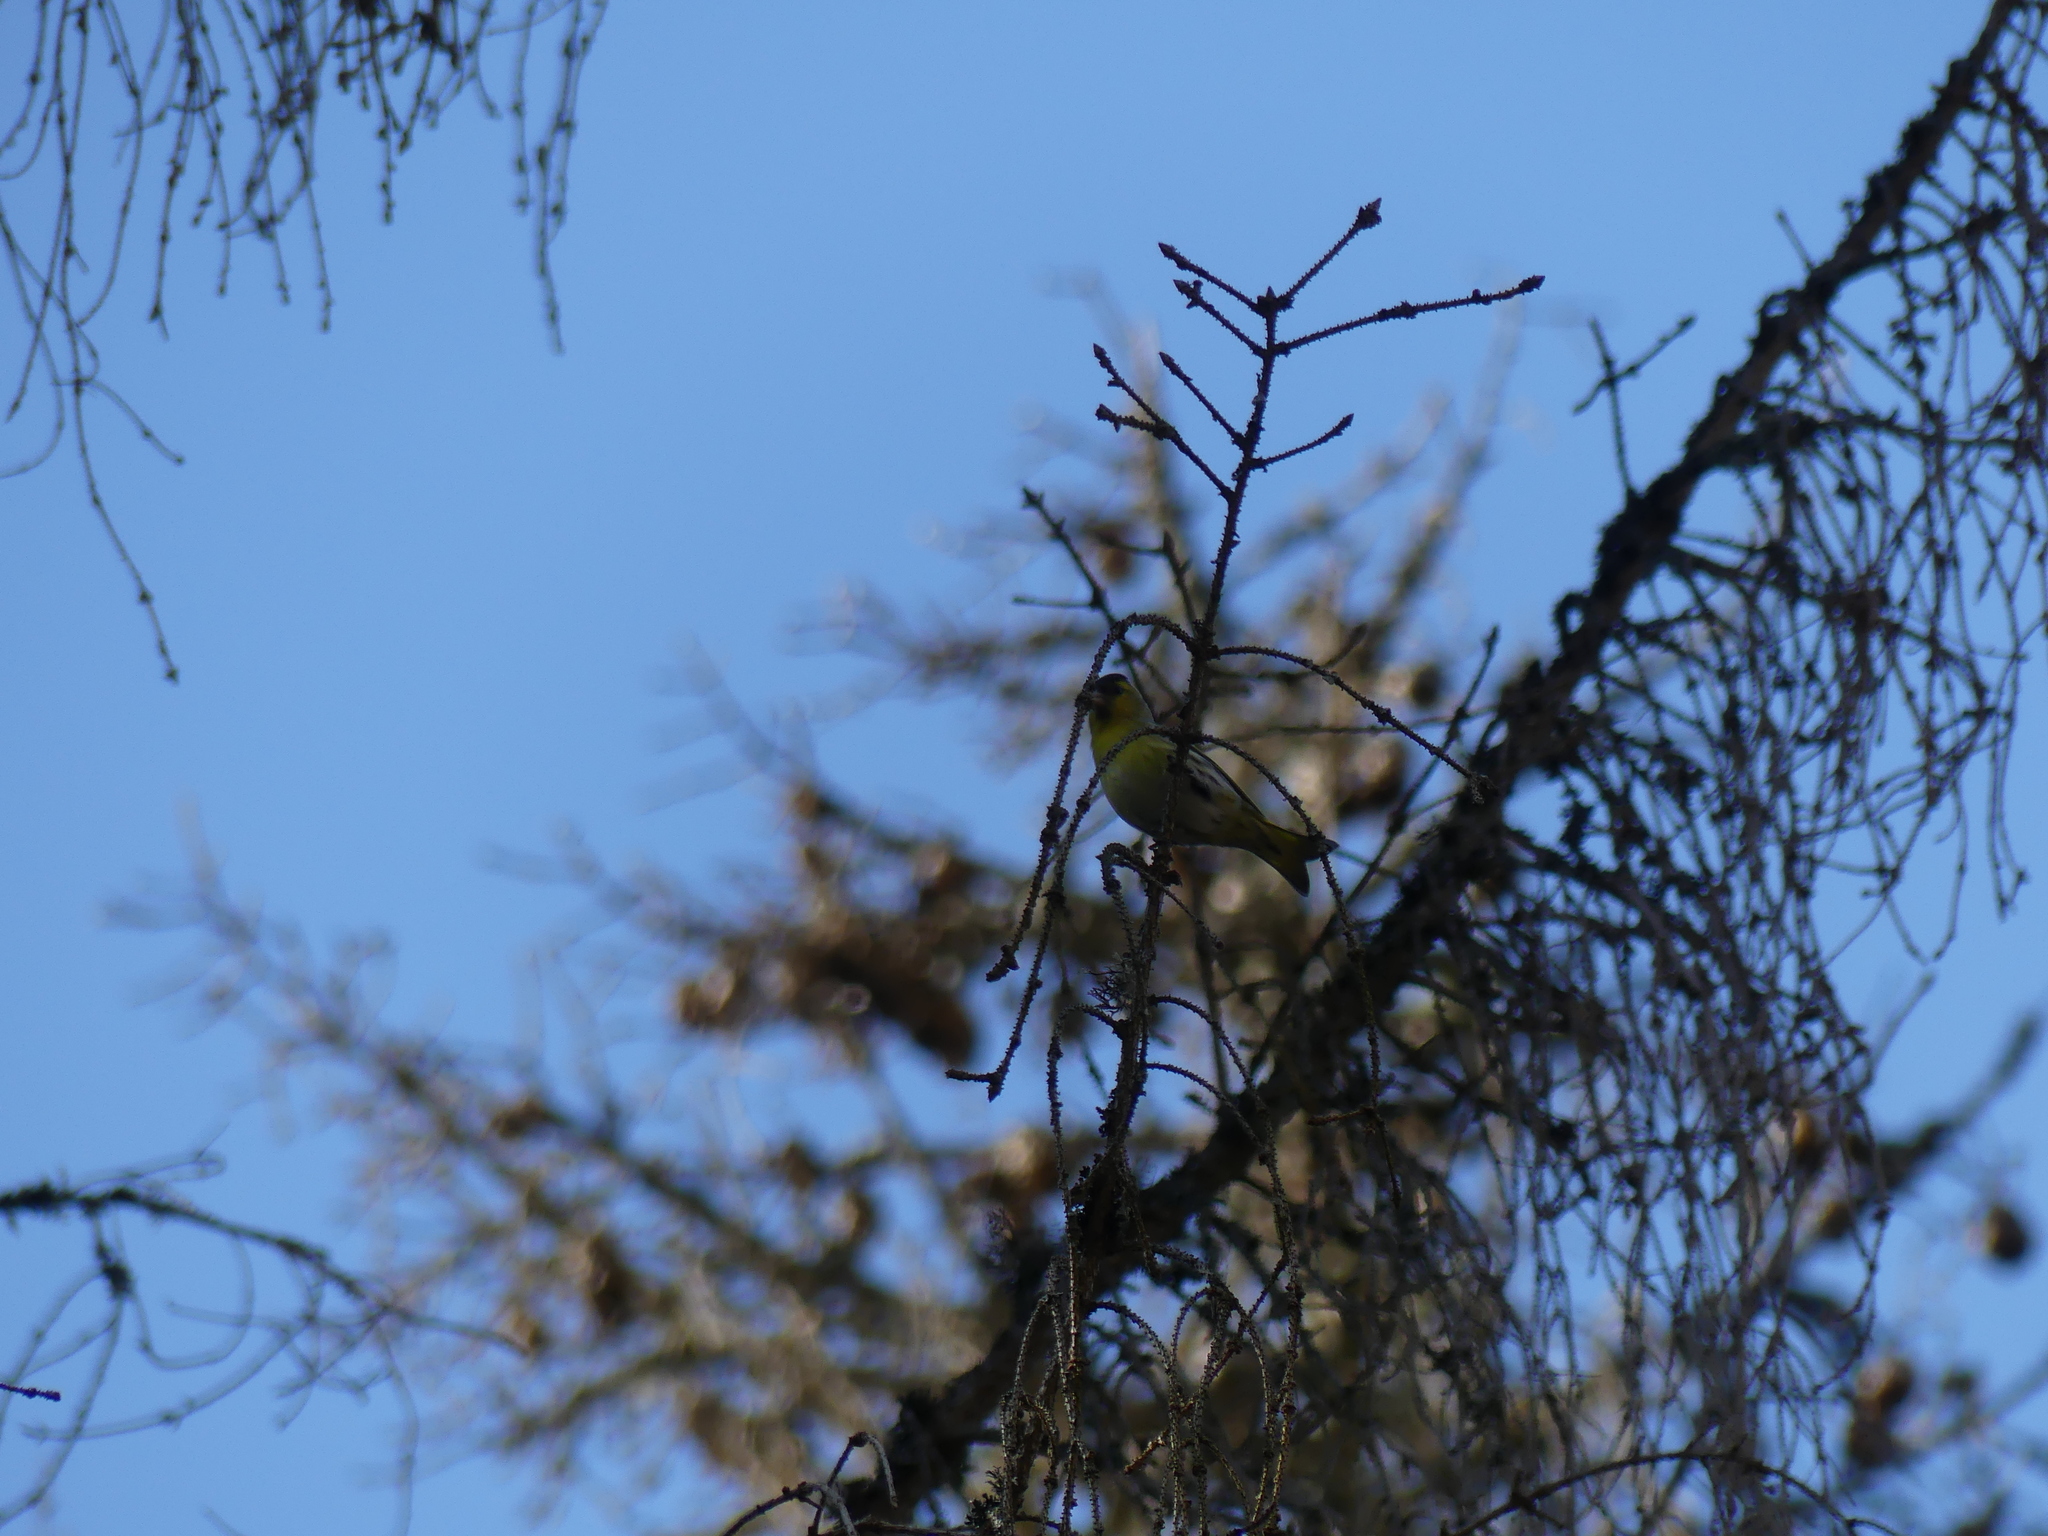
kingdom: Animalia
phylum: Chordata
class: Aves
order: Passeriformes
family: Fringillidae
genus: Spinus
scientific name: Spinus spinus
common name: Eurasian siskin
